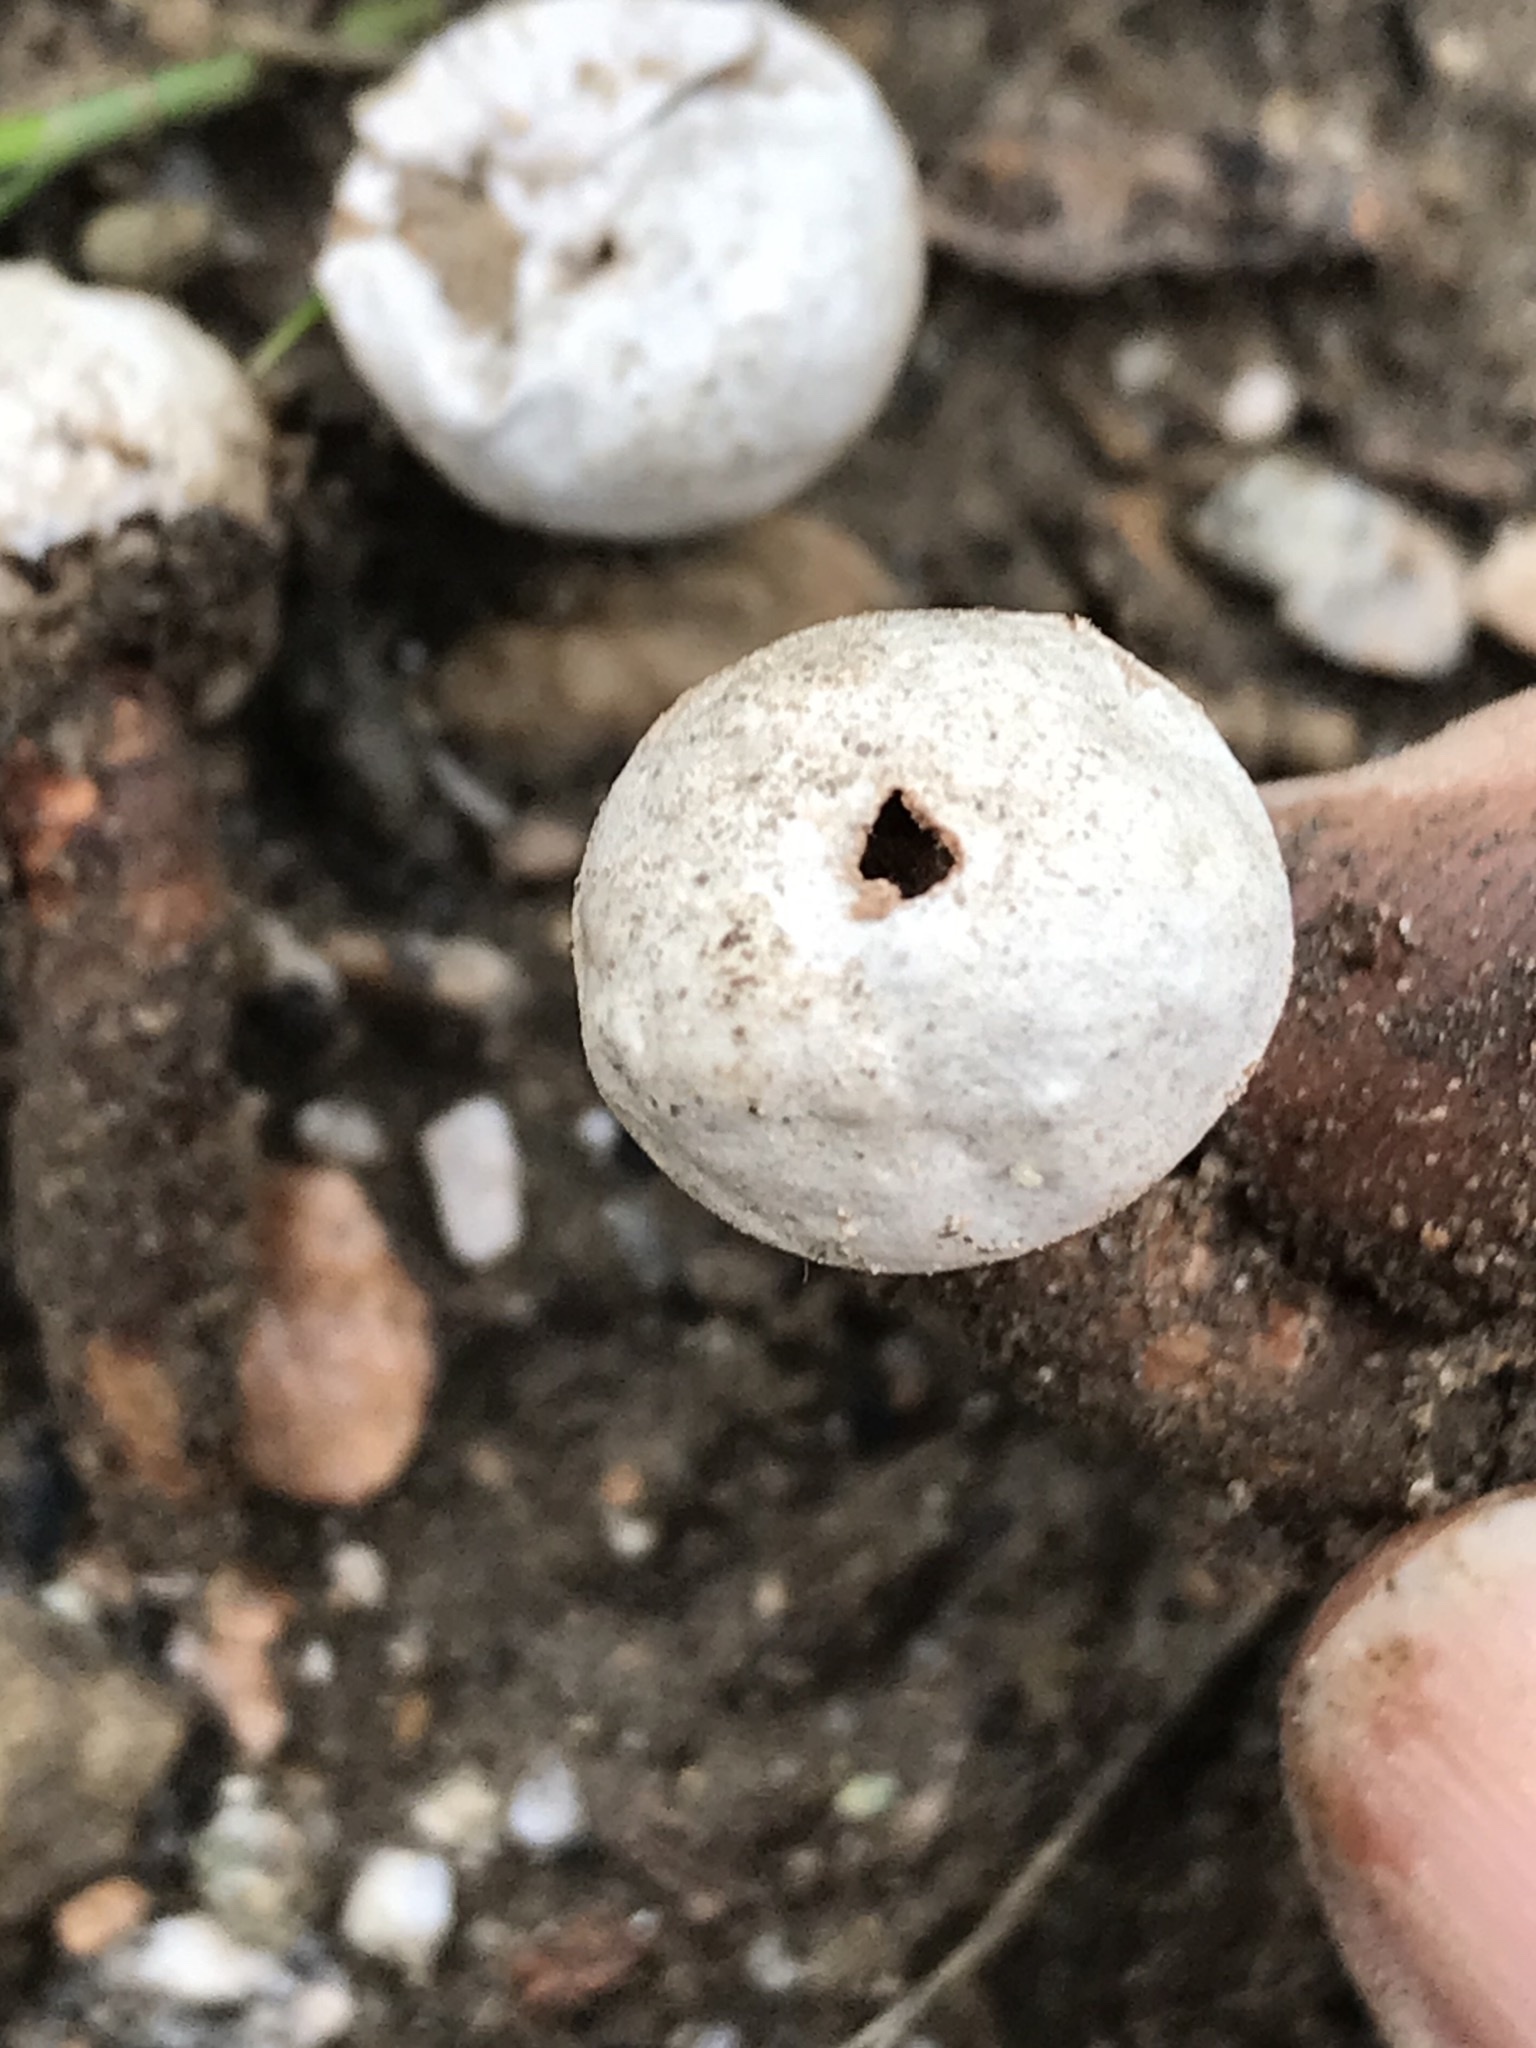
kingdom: Fungi
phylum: Basidiomycota
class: Agaricomycetes
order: Agaricales
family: Agaricaceae
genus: Tulostoma
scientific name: Tulostoma
